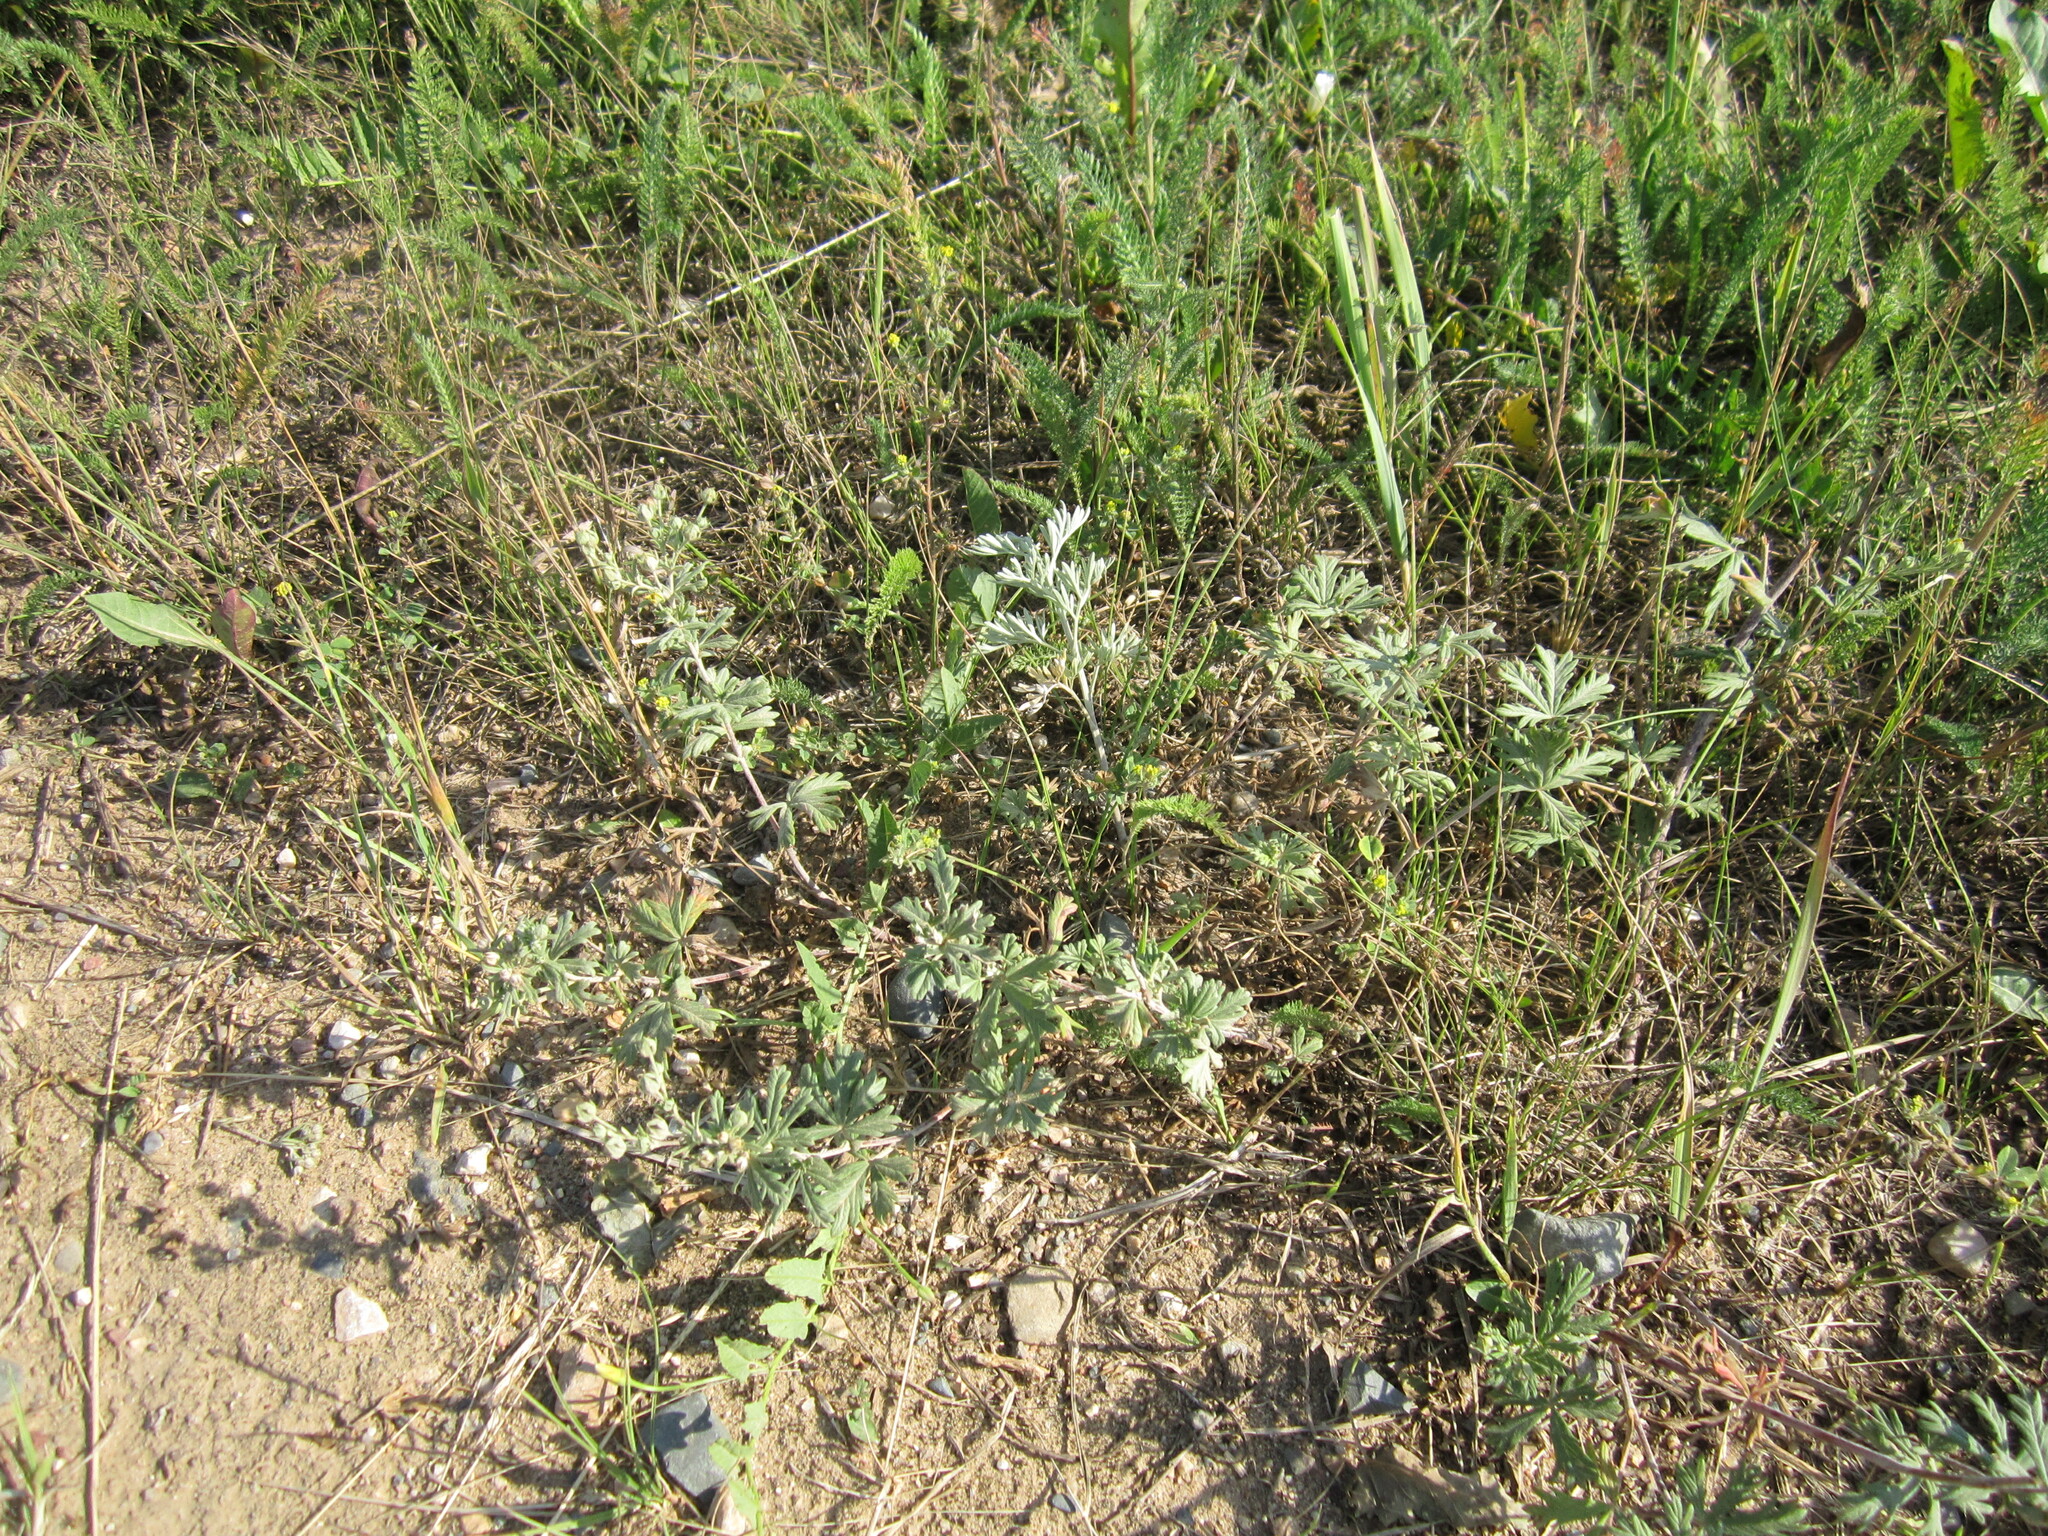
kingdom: Plantae
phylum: Tracheophyta
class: Magnoliopsida
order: Rosales
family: Rosaceae
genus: Potentilla
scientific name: Potentilla argentea
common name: Hoary cinquefoil
